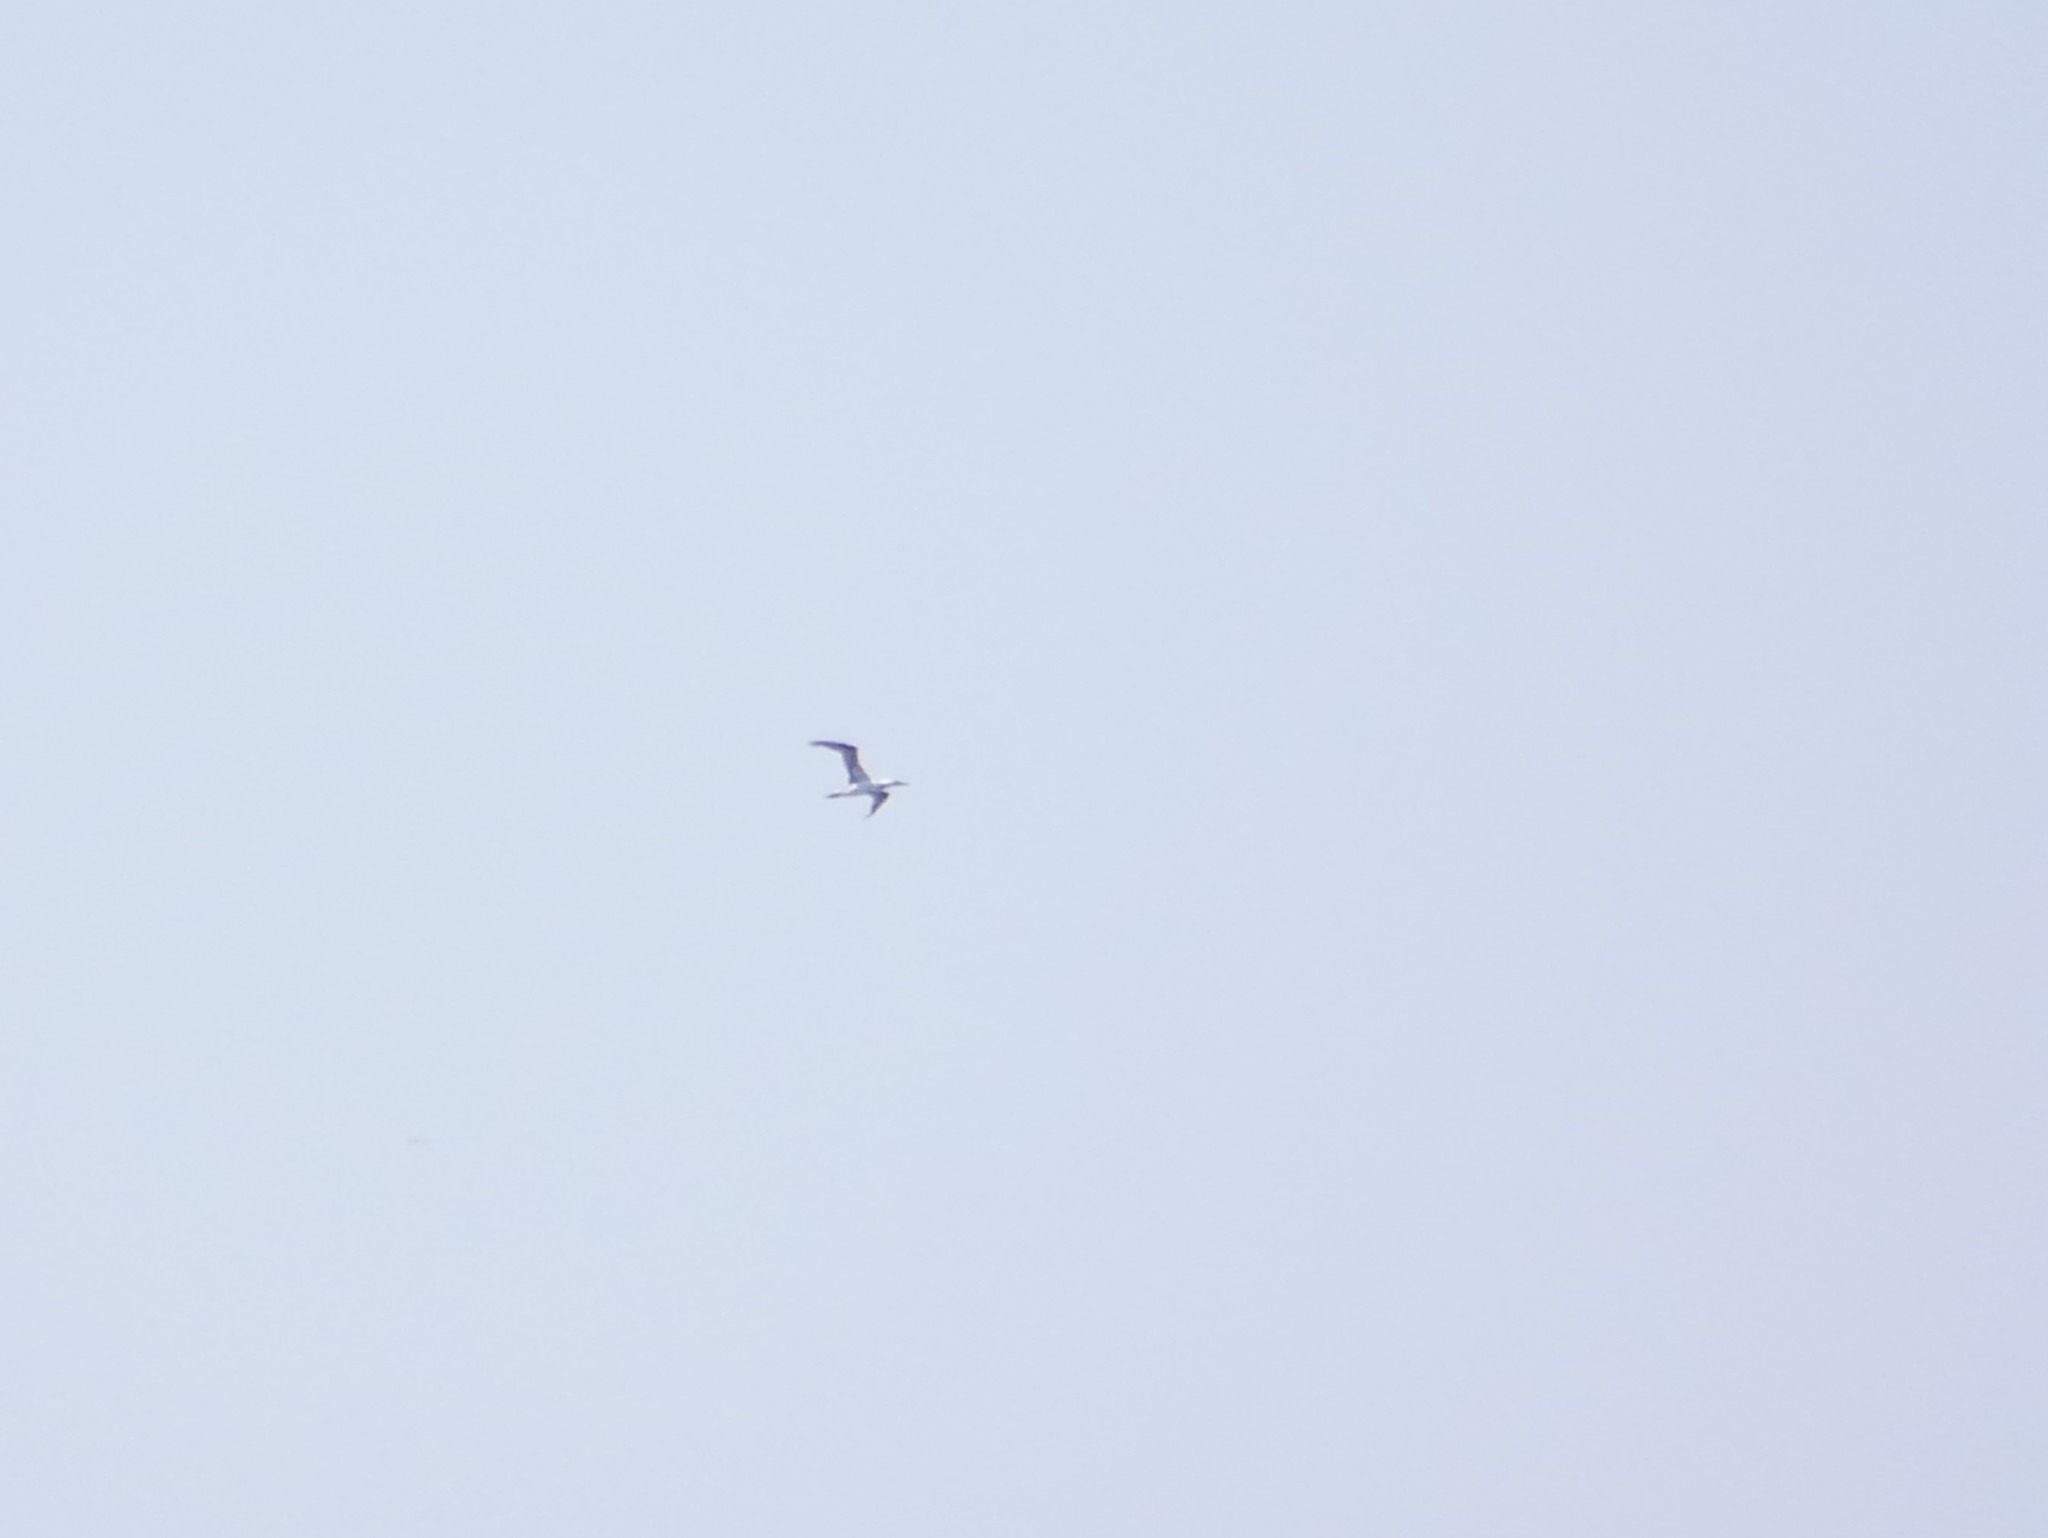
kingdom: Animalia
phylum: Chordata
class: Aves
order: Suliformes
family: Sulidae
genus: Morus
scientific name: Morus bassanus
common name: Northern gannet
